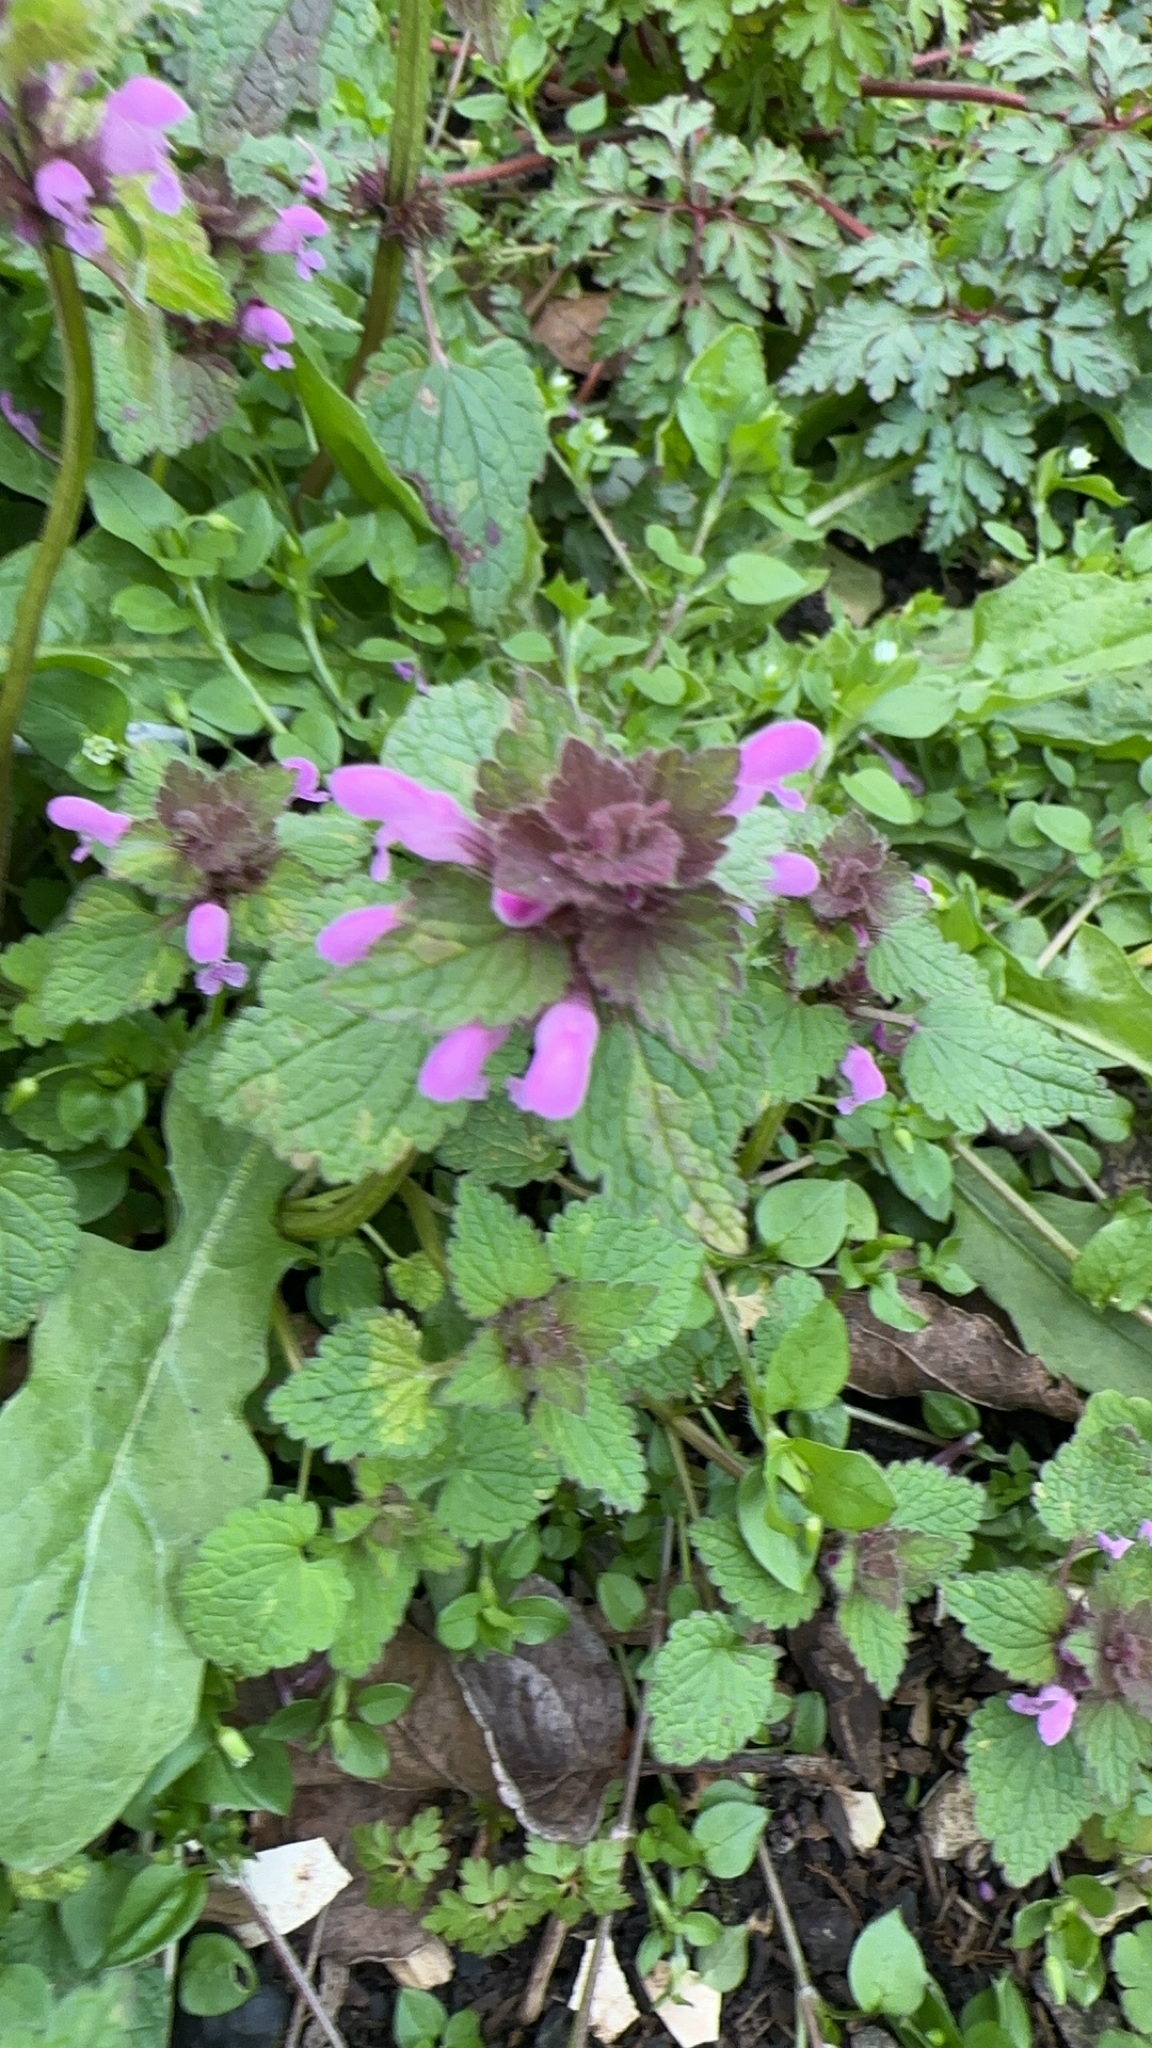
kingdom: Plantae
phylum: Tracheophyta
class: Magnoliopsida
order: Lamiales
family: Lamiaceae
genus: Lamium
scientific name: Lamium purpureum
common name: Red dead-nettle
